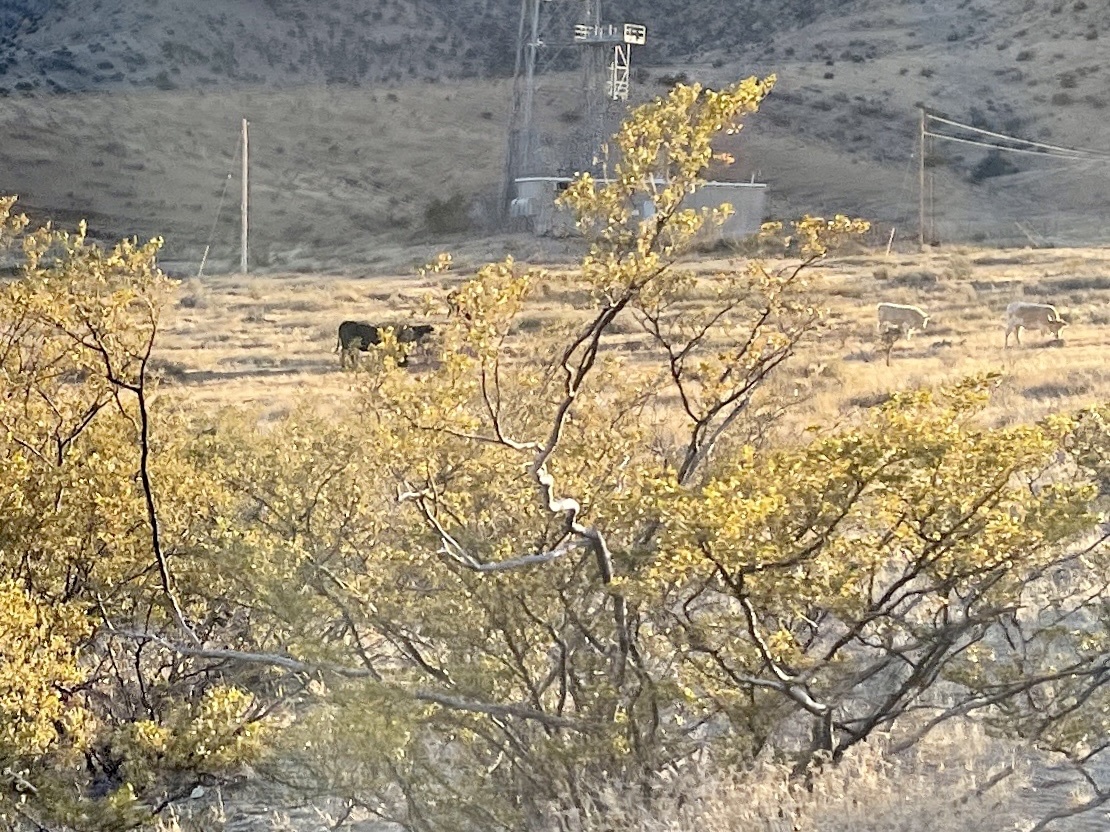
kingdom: Plantae
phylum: Tracheophyta
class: Magnoliopsida
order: Zygophyllales
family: Zygophyllaceae
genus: Larrea
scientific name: Larrea tridentata
